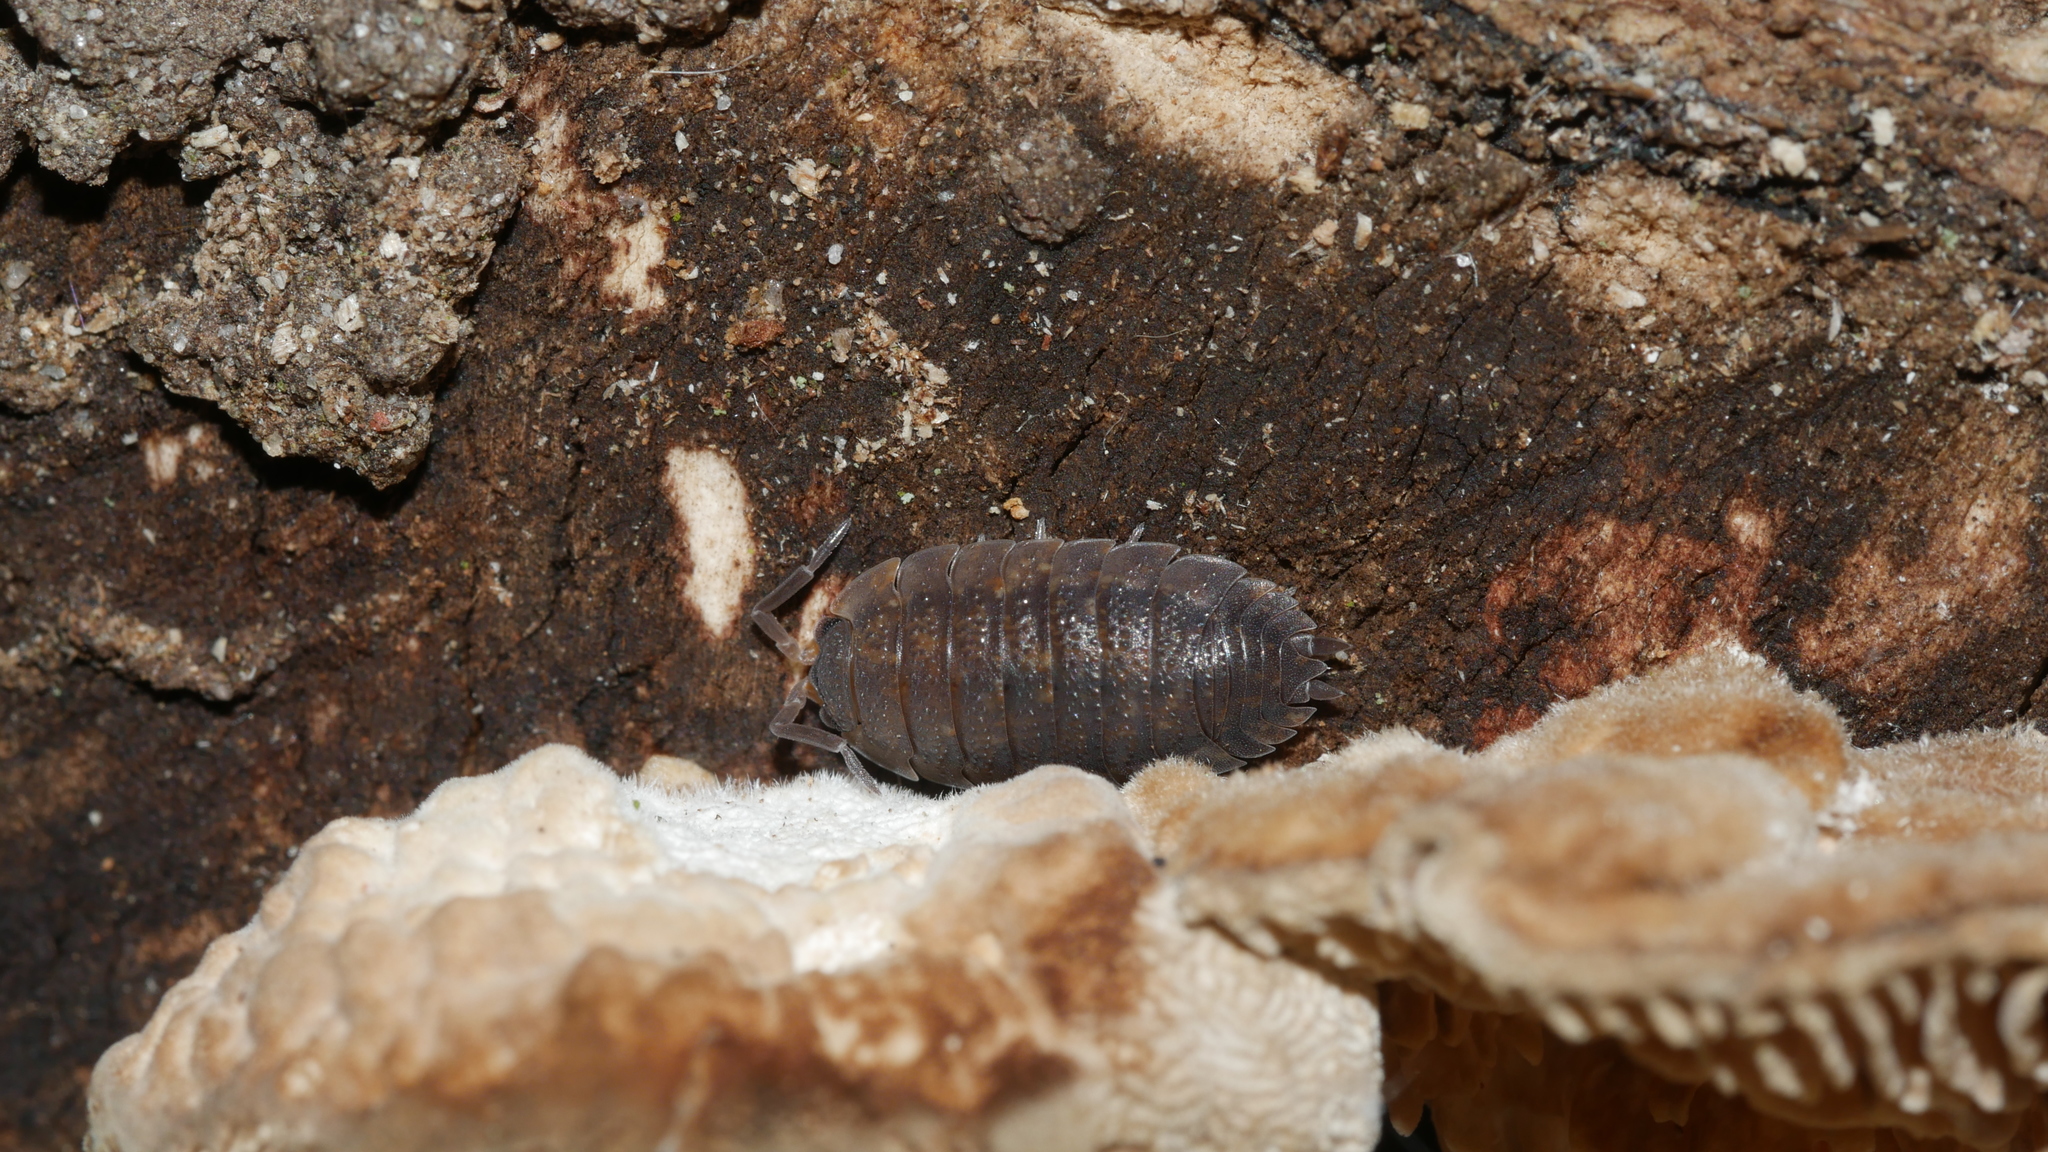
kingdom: Animalia
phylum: Arthropoda
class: Malacostraca
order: Isopoda
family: Porcellionidae
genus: Porcellio
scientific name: Porcellio scaber
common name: Common rough woodlouse
